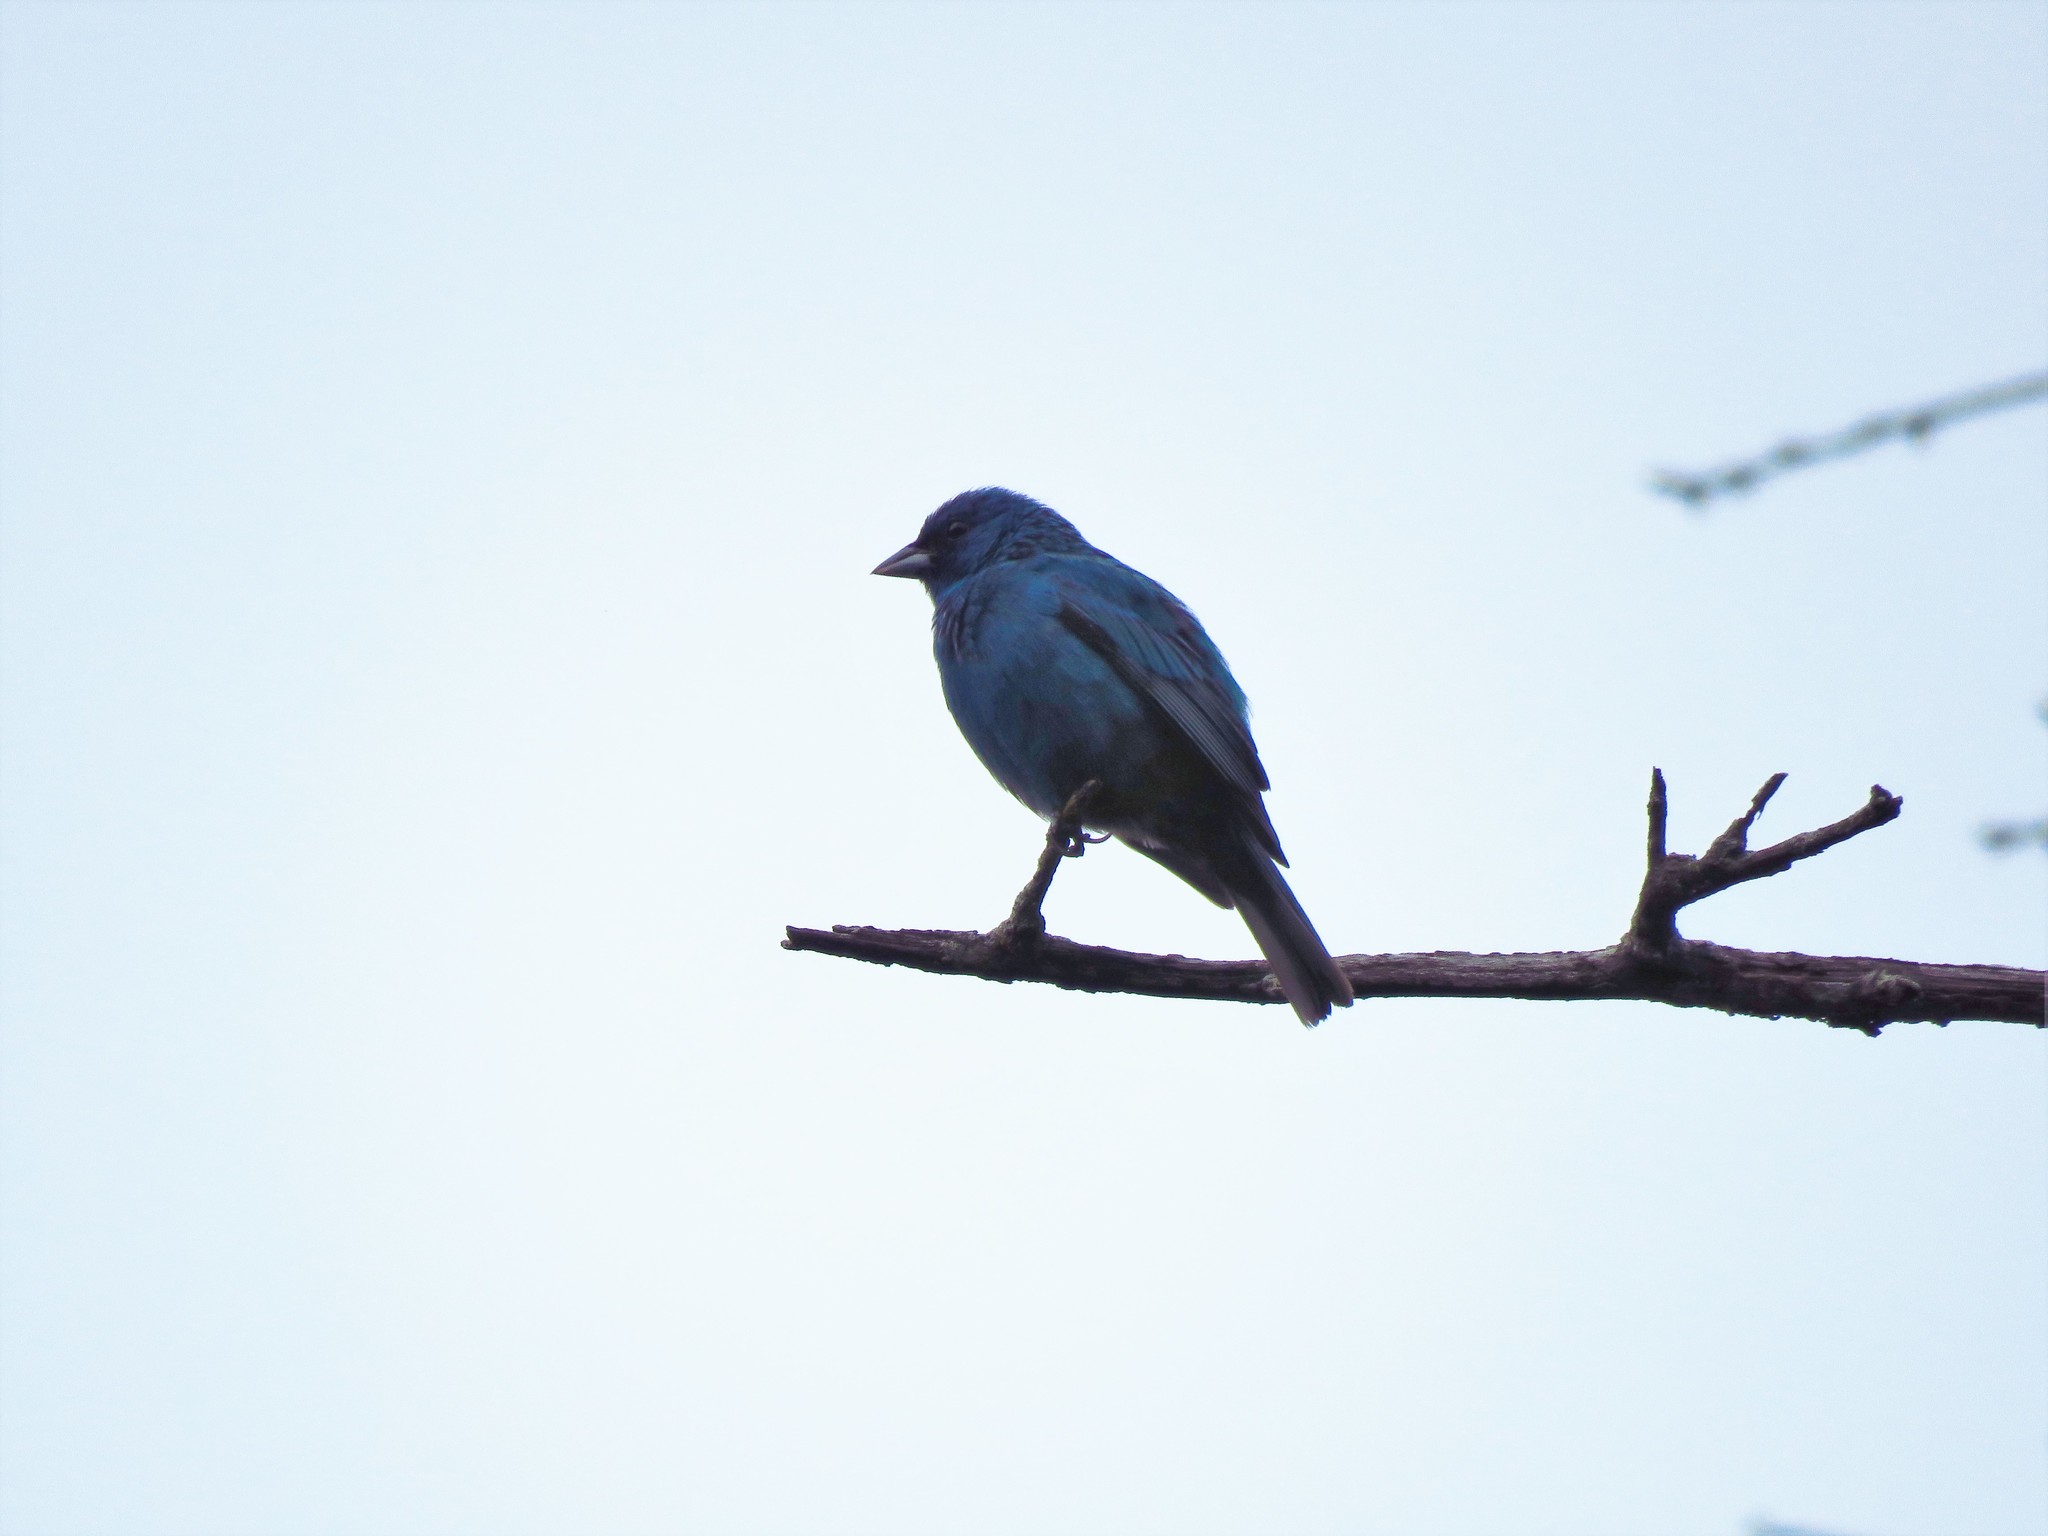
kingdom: Animalia
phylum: Chordata
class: Aves
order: Passeriformes
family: Cardinalidae
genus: Passerina
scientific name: Passerina cyanea
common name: Indigo bunting
